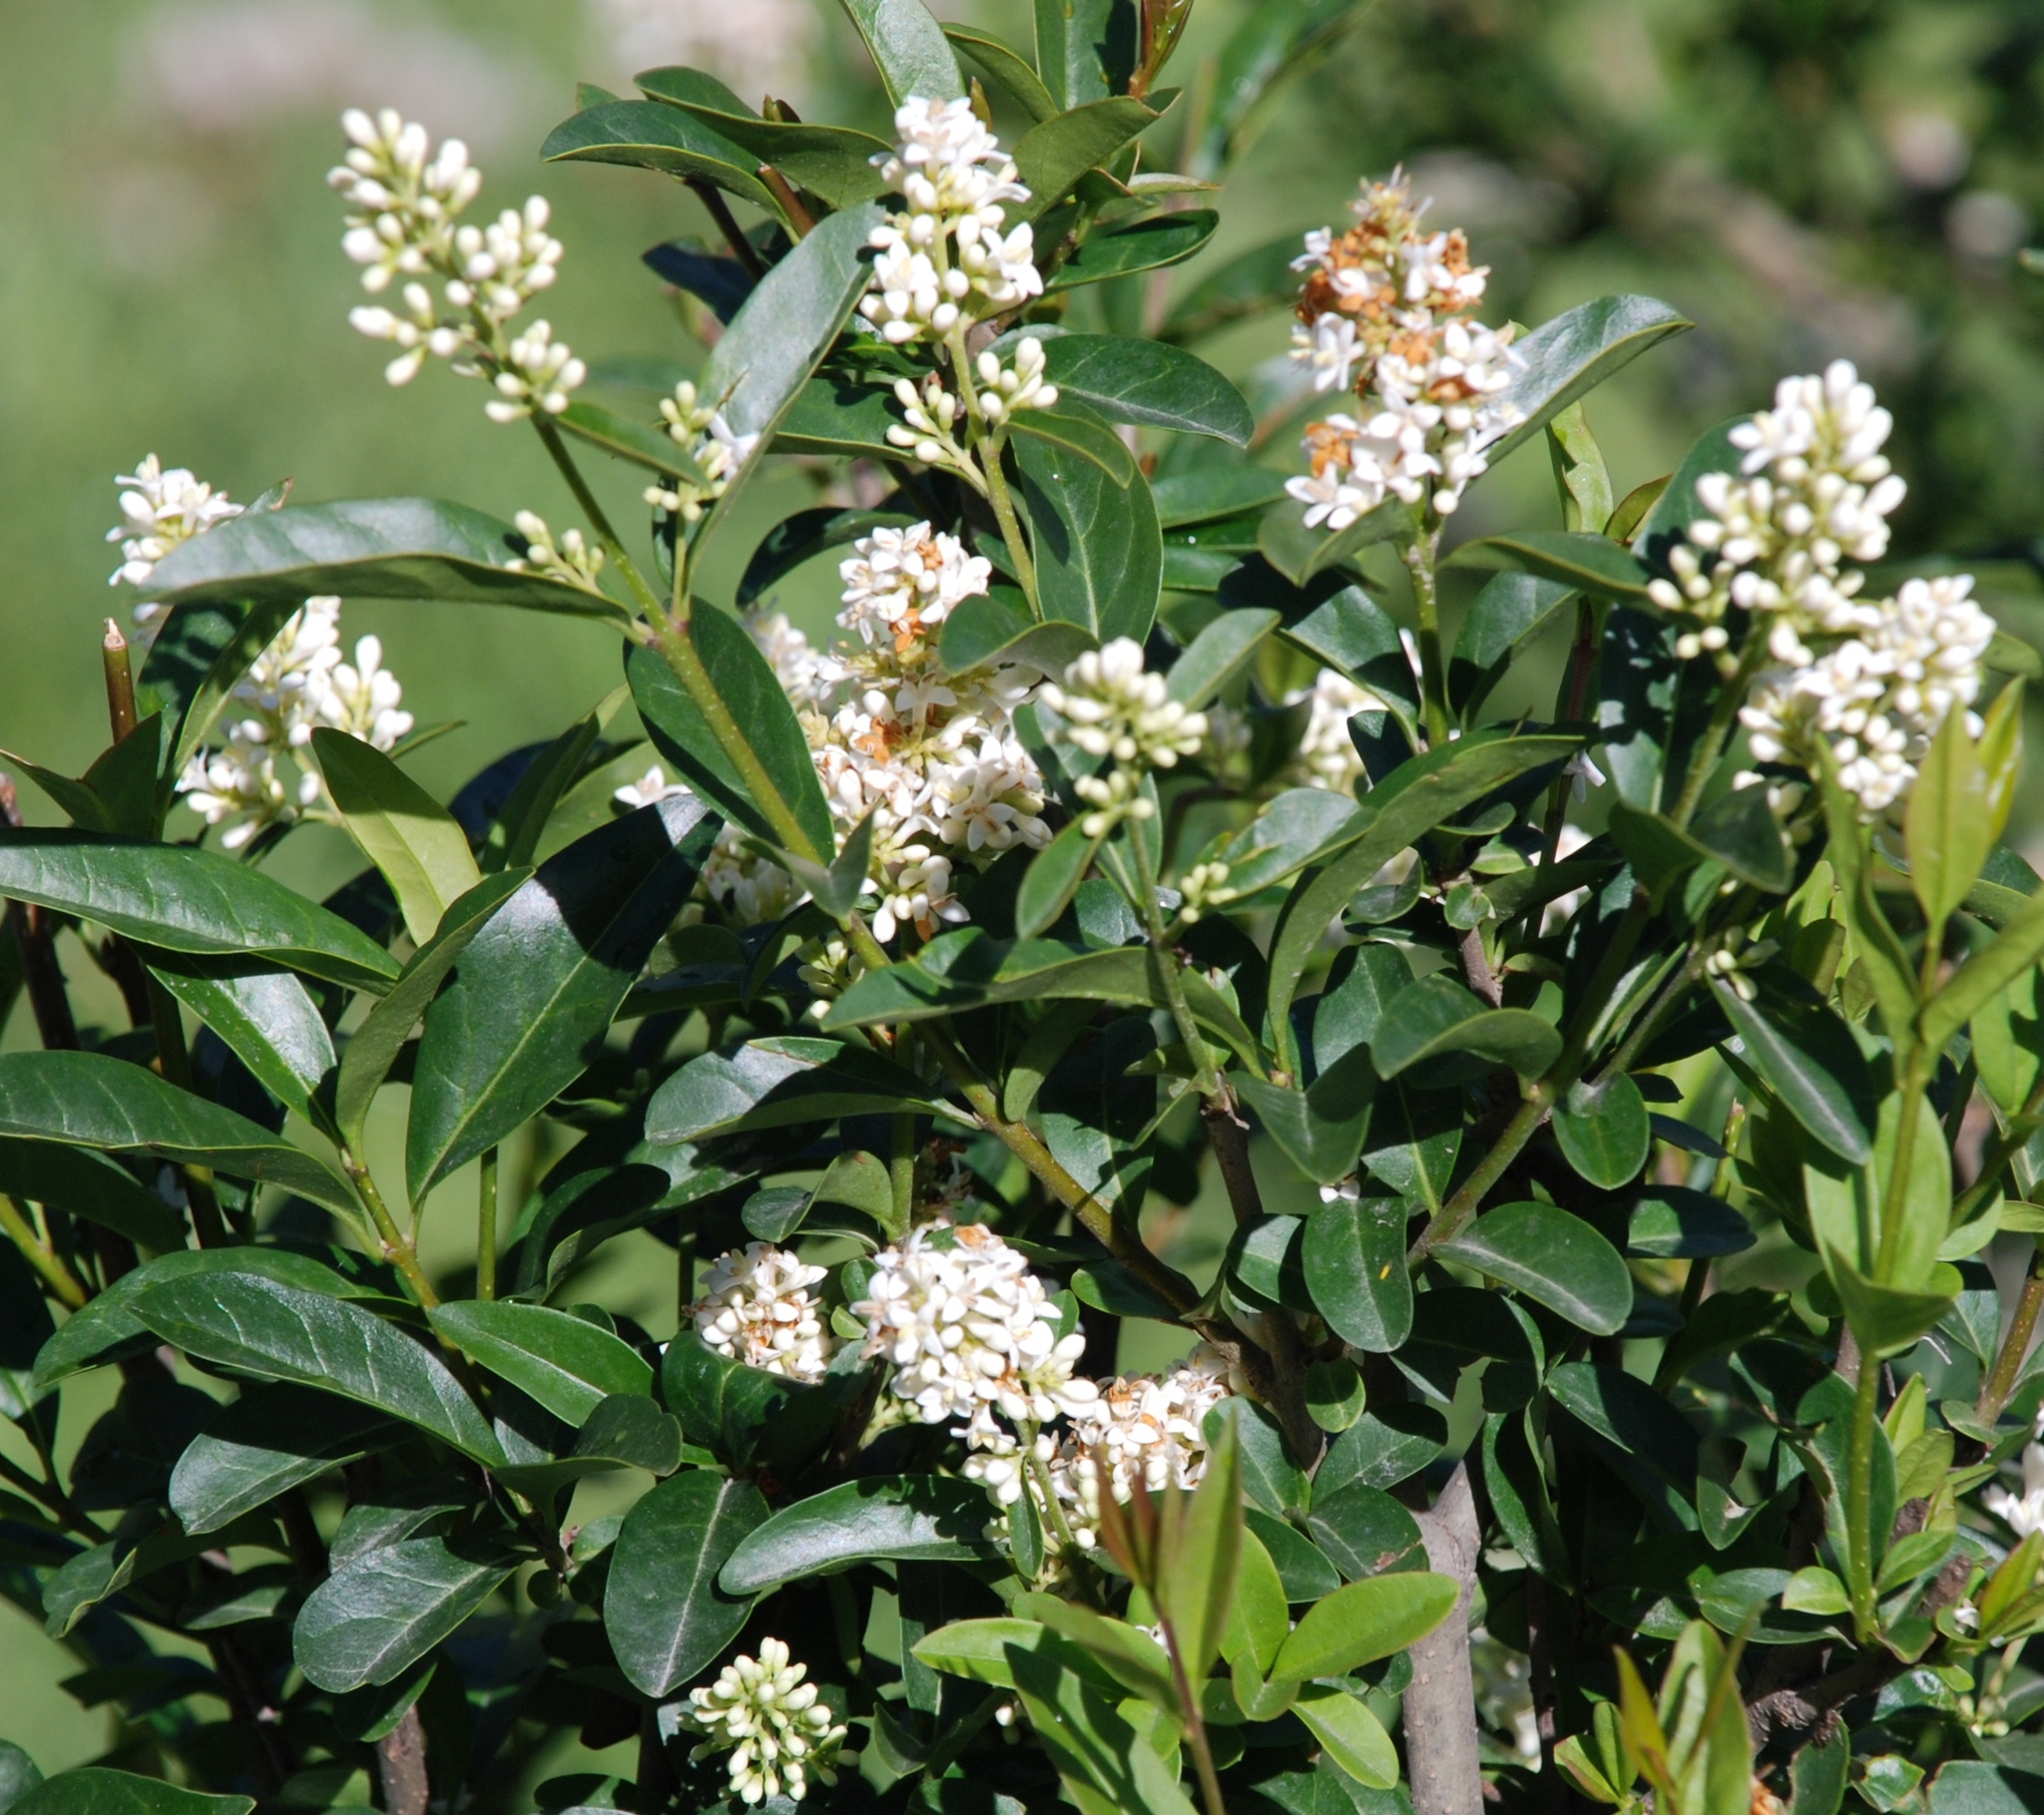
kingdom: Plantae
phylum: Tracheophyta
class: Magnoliopsida
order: Lamiales
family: Oleaceae
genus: Ligustrum
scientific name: Ligustrum vulgare
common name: Wild privet
